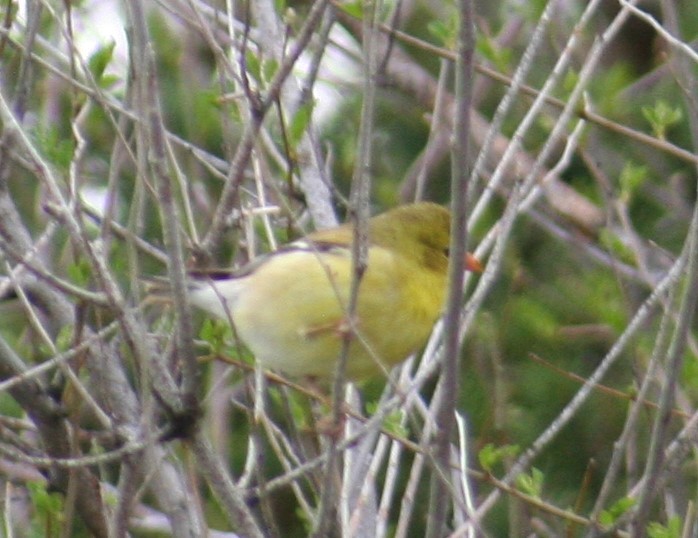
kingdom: Animalia
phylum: Chordata
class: Aves
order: Passeriformes
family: Fringillidae
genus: Spinus
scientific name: Spinus tristis
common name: American goldfinch
